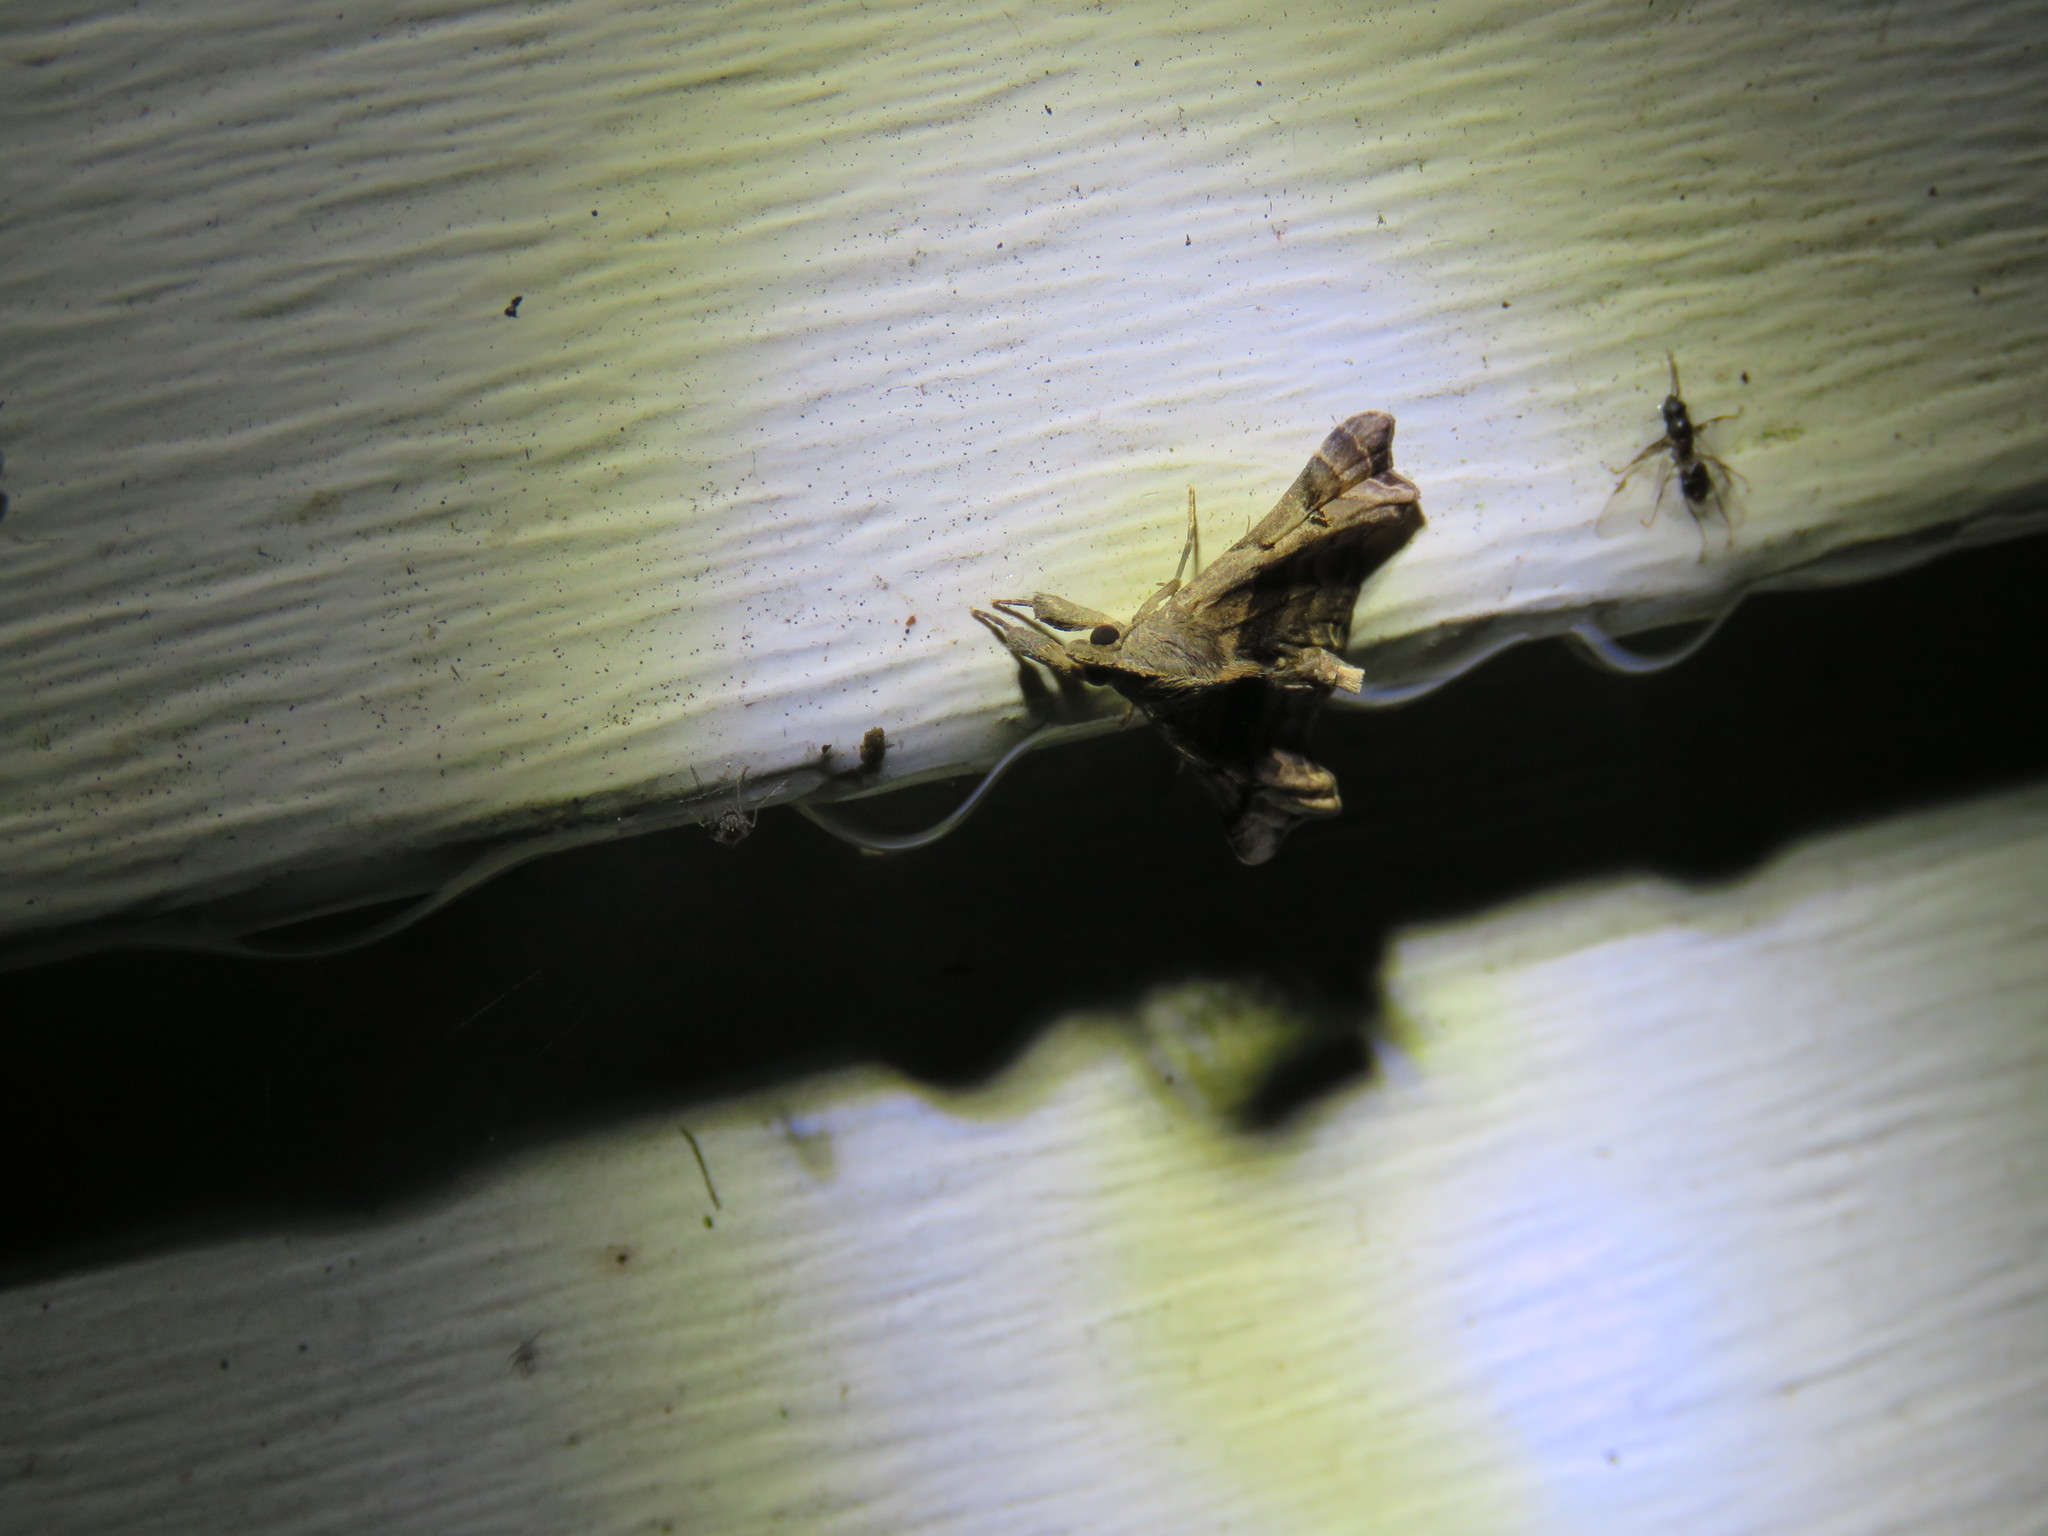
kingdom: Animalia
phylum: Arthropoda
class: Insecta
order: Lepidoptera
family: Erebidae
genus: Palthis
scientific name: Palthis asopialis
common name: Faint-spotted palthis moth
